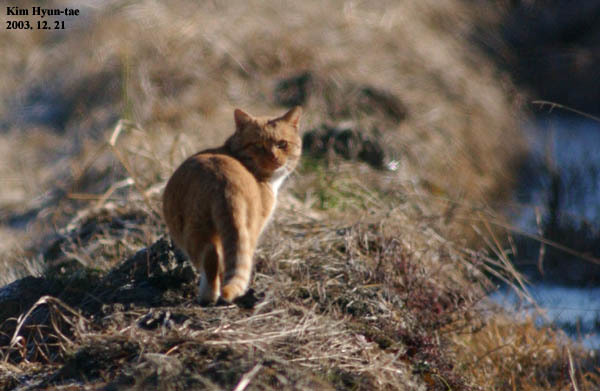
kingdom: Animalia
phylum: Chordata
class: Mammalia
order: Carnivora
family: Felidae
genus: Felis
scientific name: Felis catus
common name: Domestic cat
